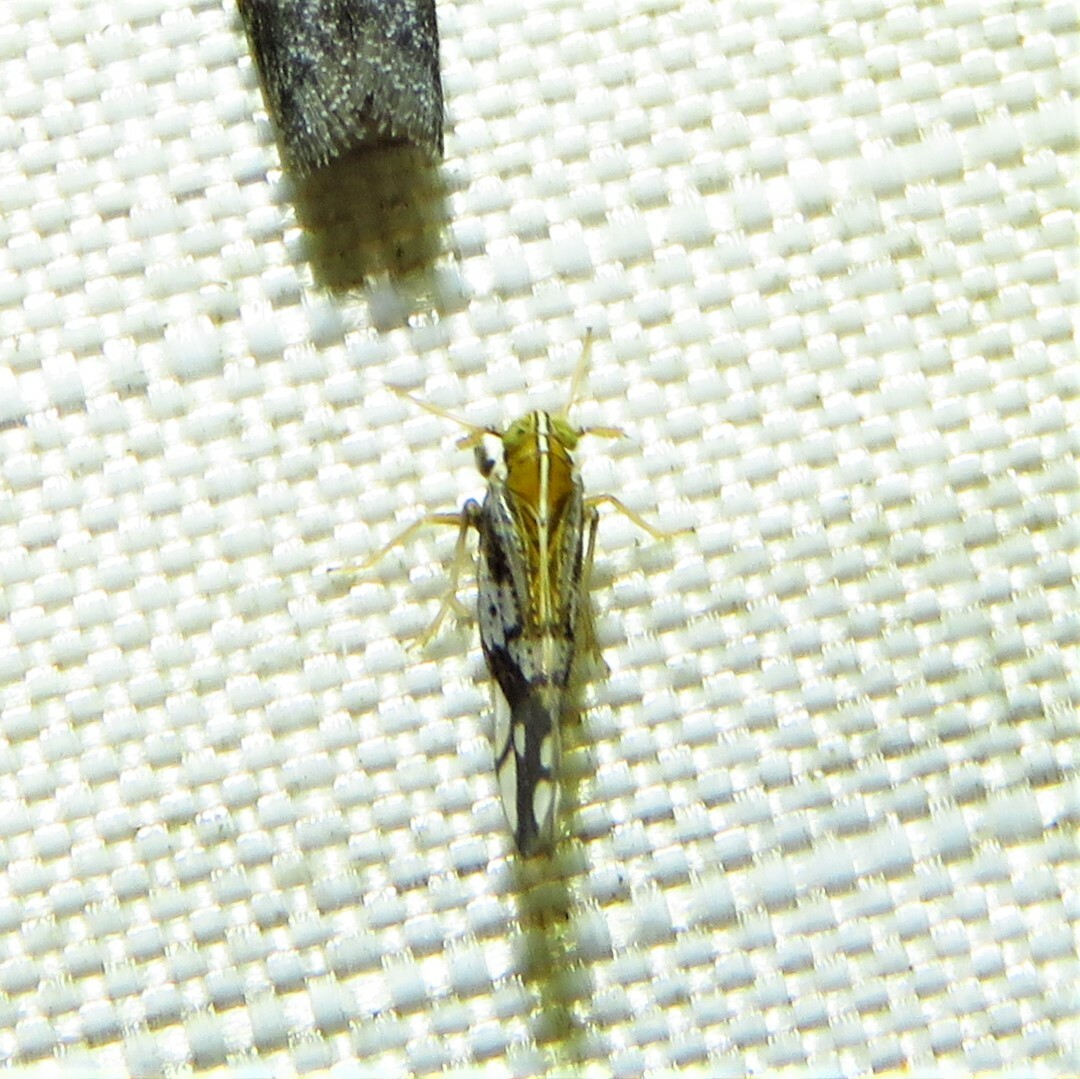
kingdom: Animalia
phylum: Arthropoda
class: Insecta
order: Hemiptera
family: Delphacidae
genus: Liburniella
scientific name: Liburniella ornata
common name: Ornate planthopper
